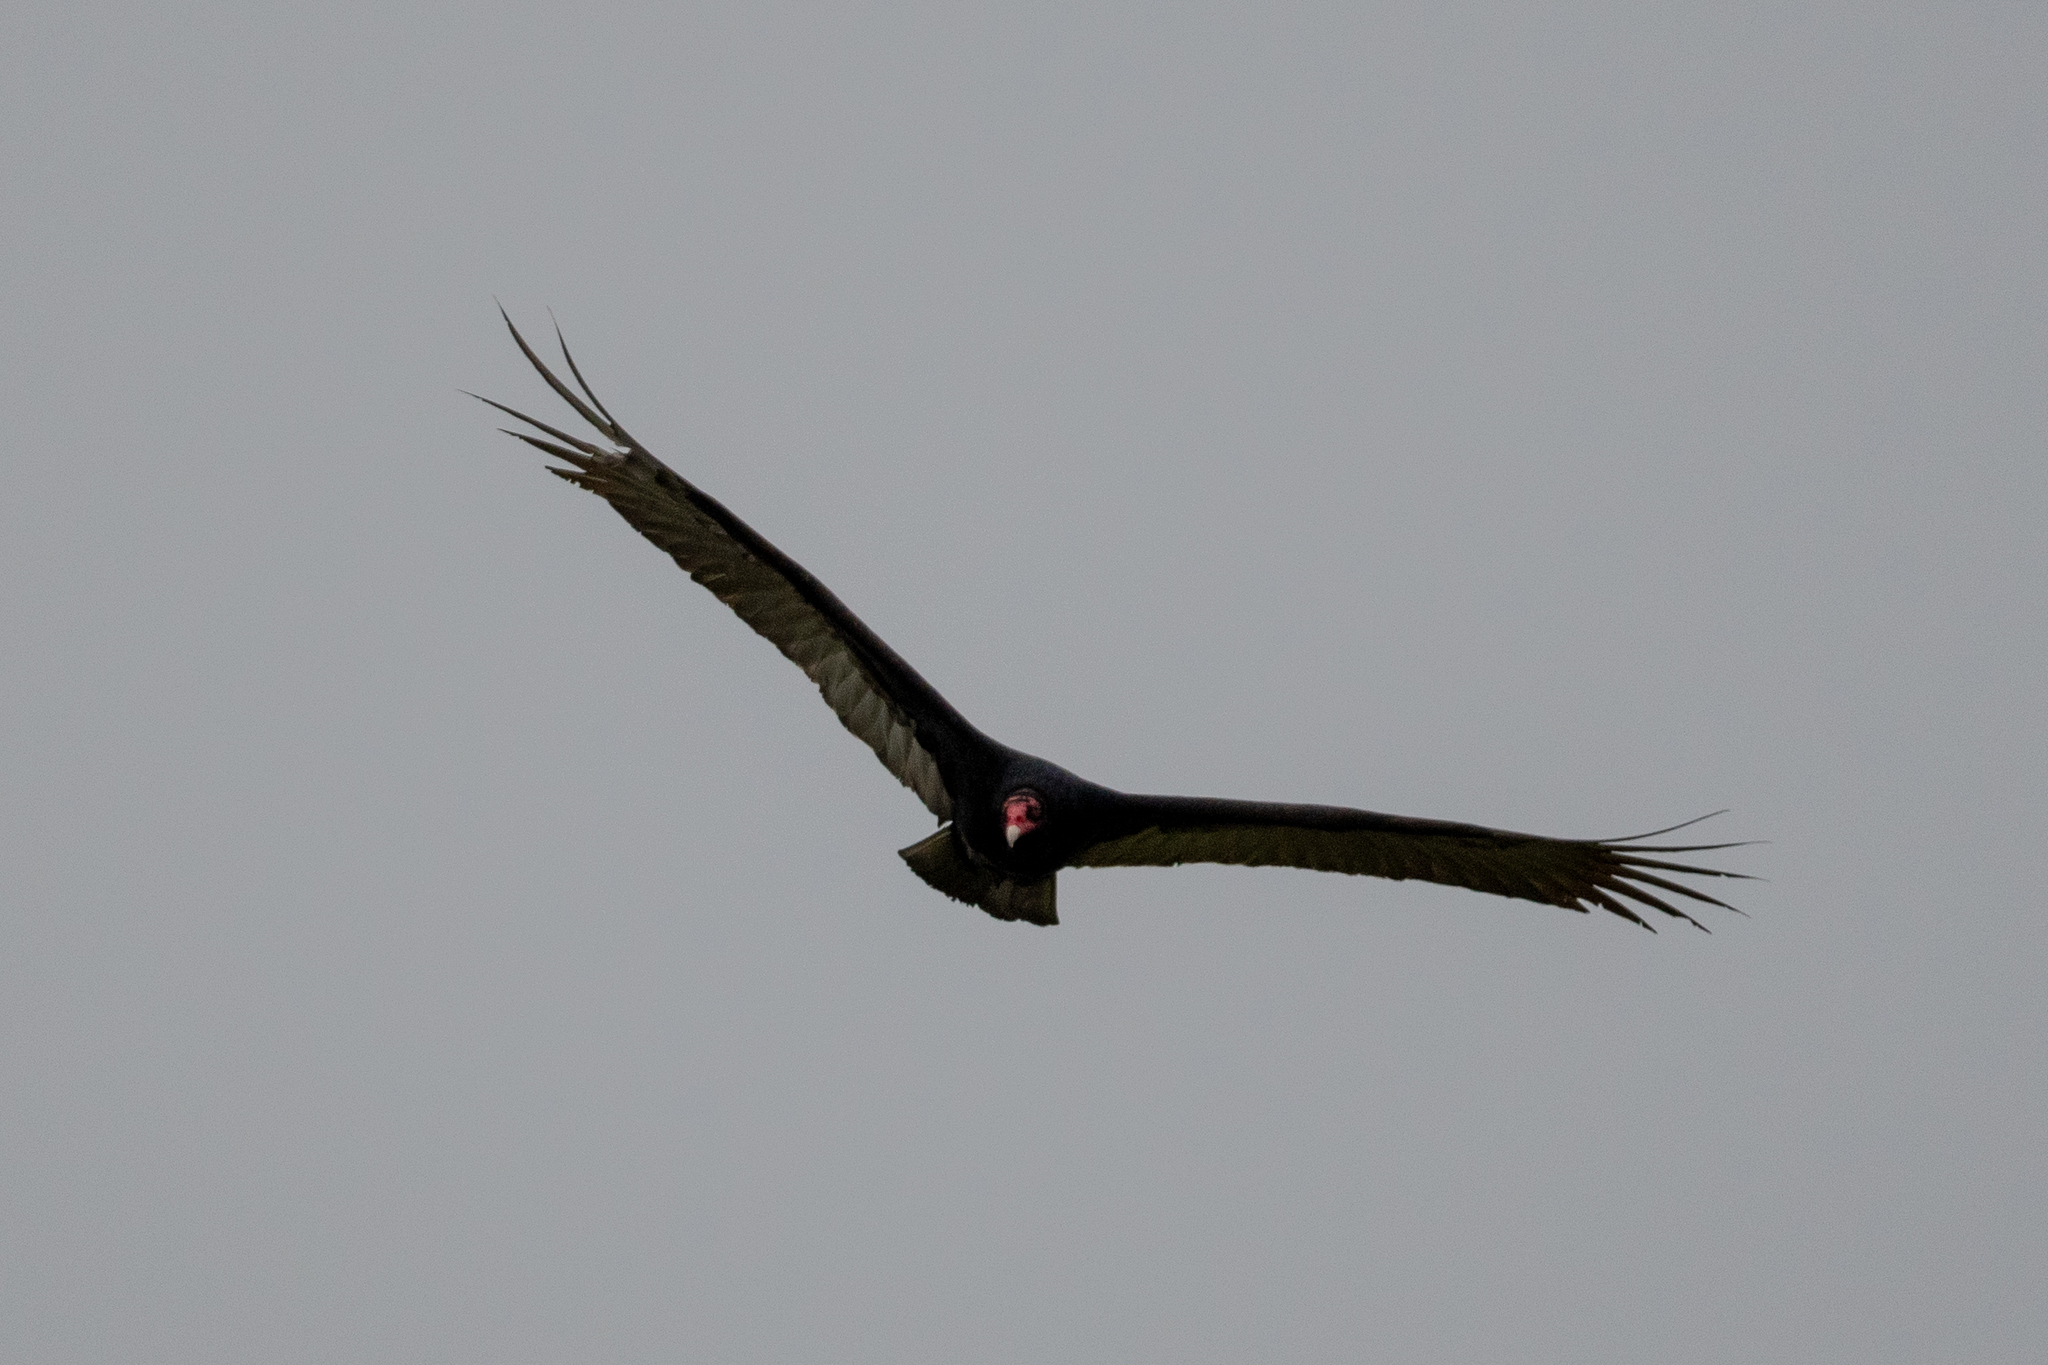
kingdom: Animalia
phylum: Chordata
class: Aves
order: Accipitriformes
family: Cathartidae
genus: Cathartes
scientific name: Cathartes aura
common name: Turkey vulture
